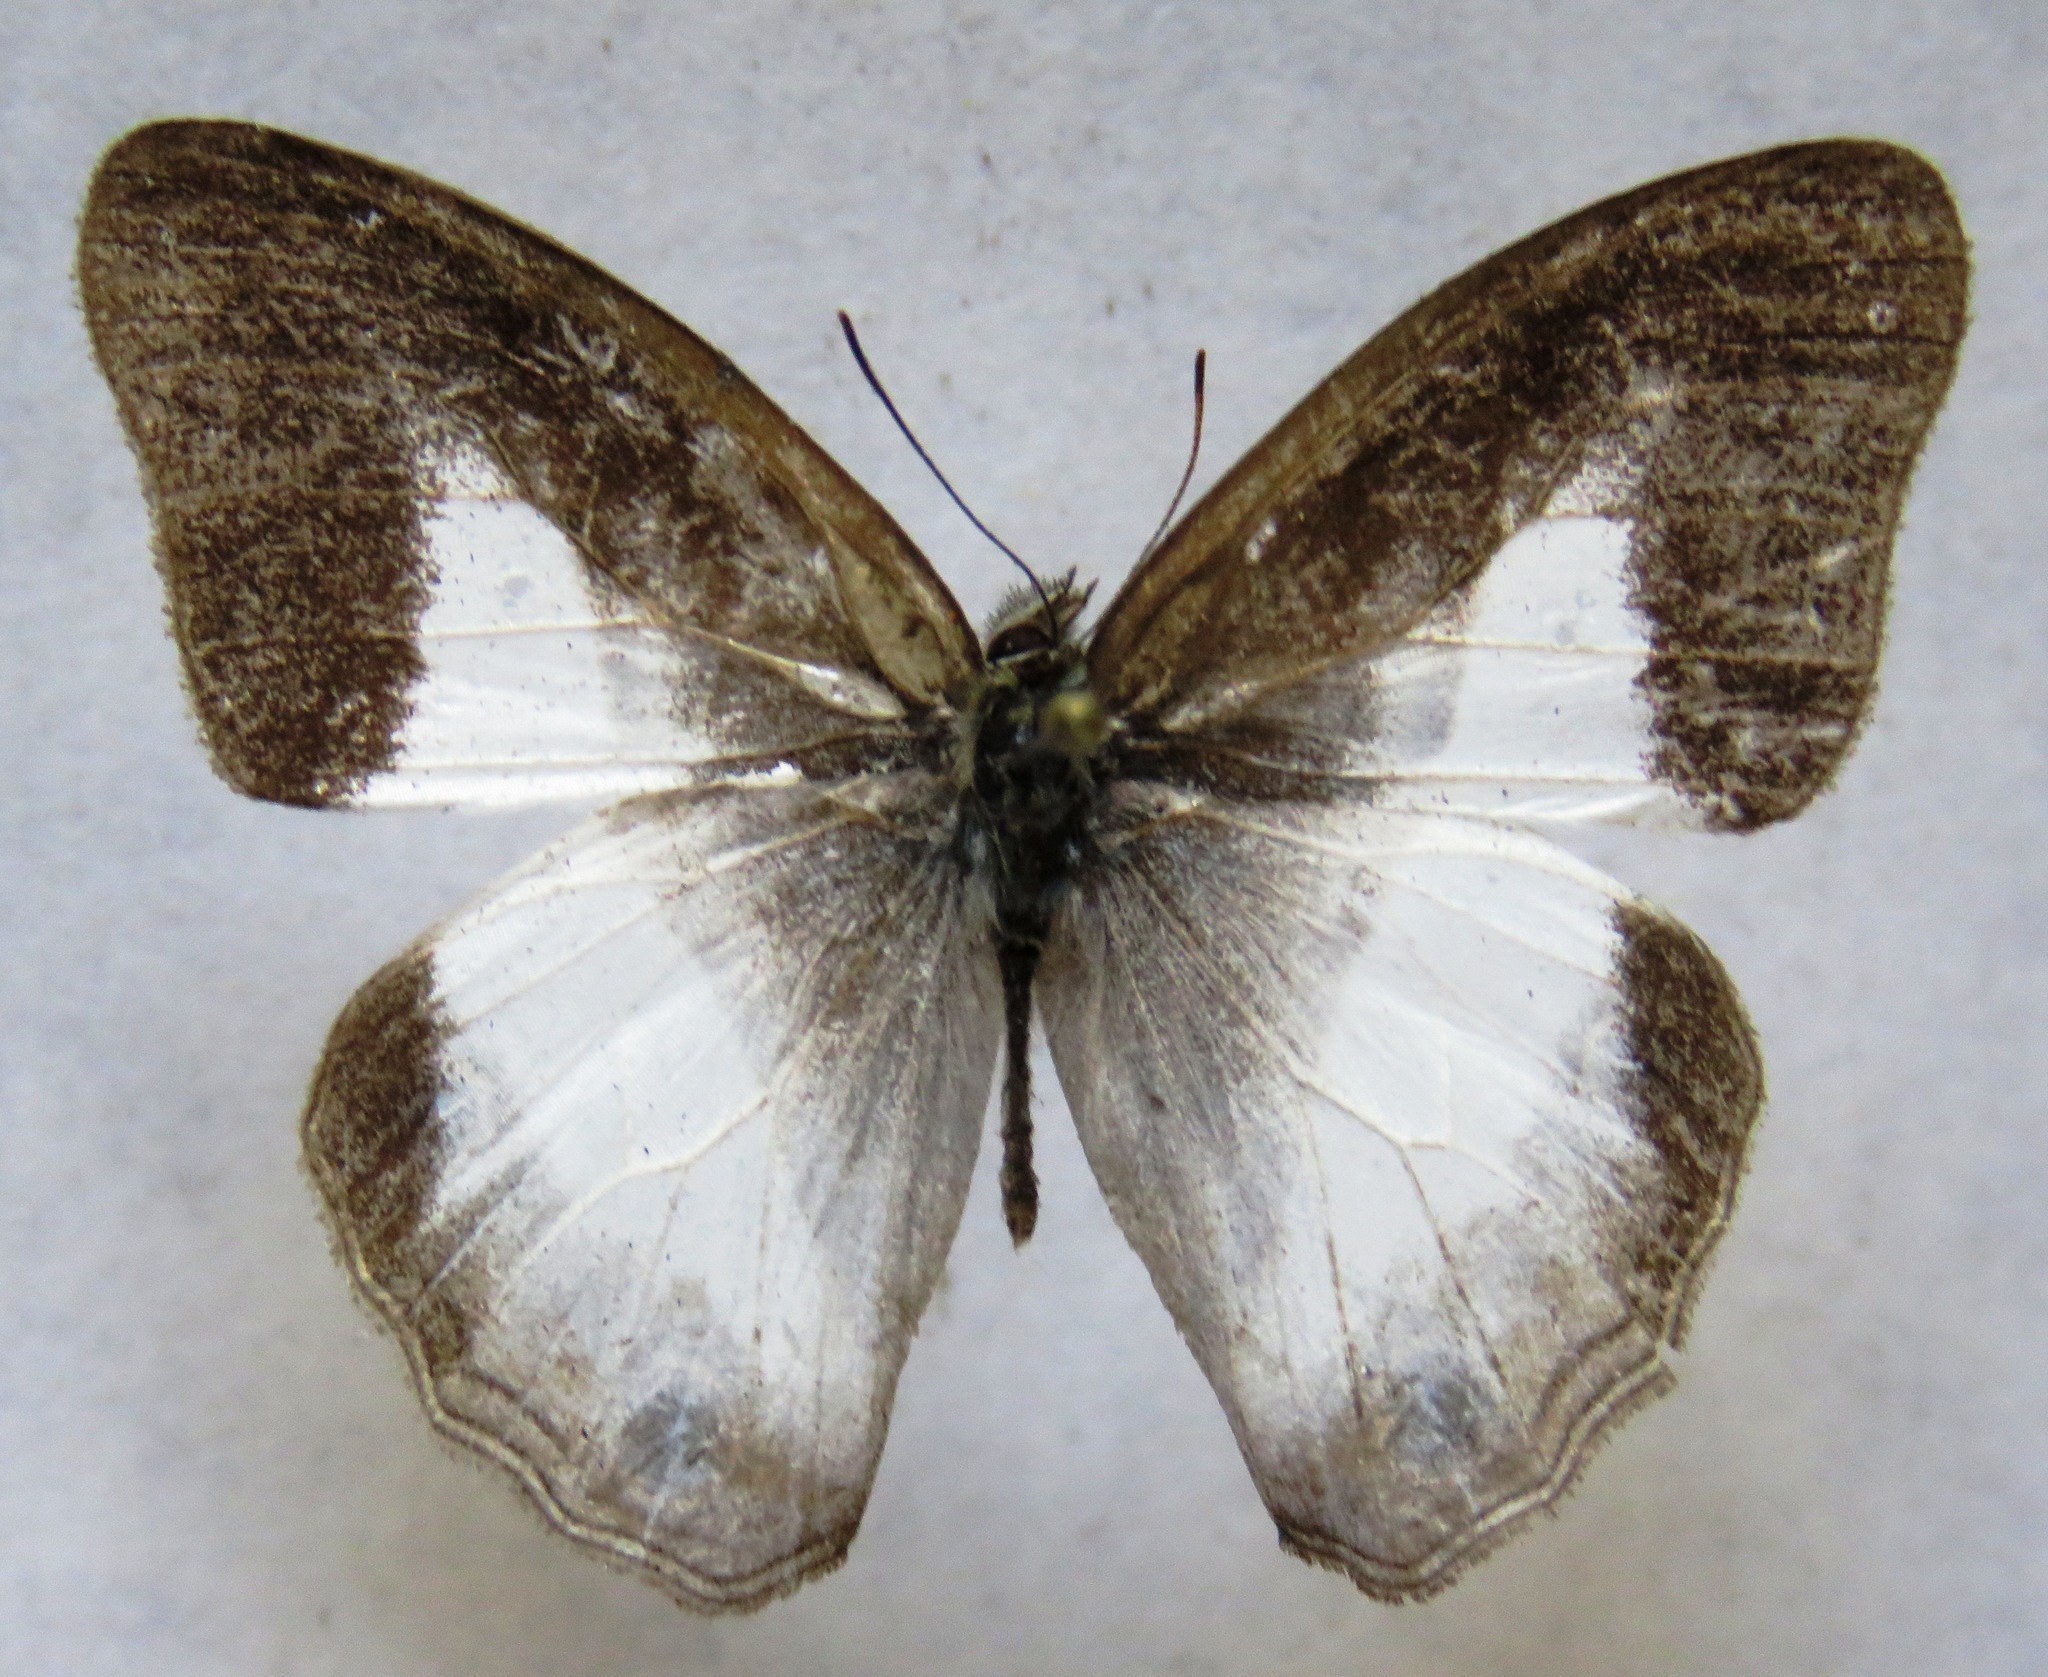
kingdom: Animalia
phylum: Arthropoda
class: Insecta
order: Lepidoptera
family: Nymphalidae
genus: Pareuptychia
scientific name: Pareuptychia metaleuca
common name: White-banded satyr
